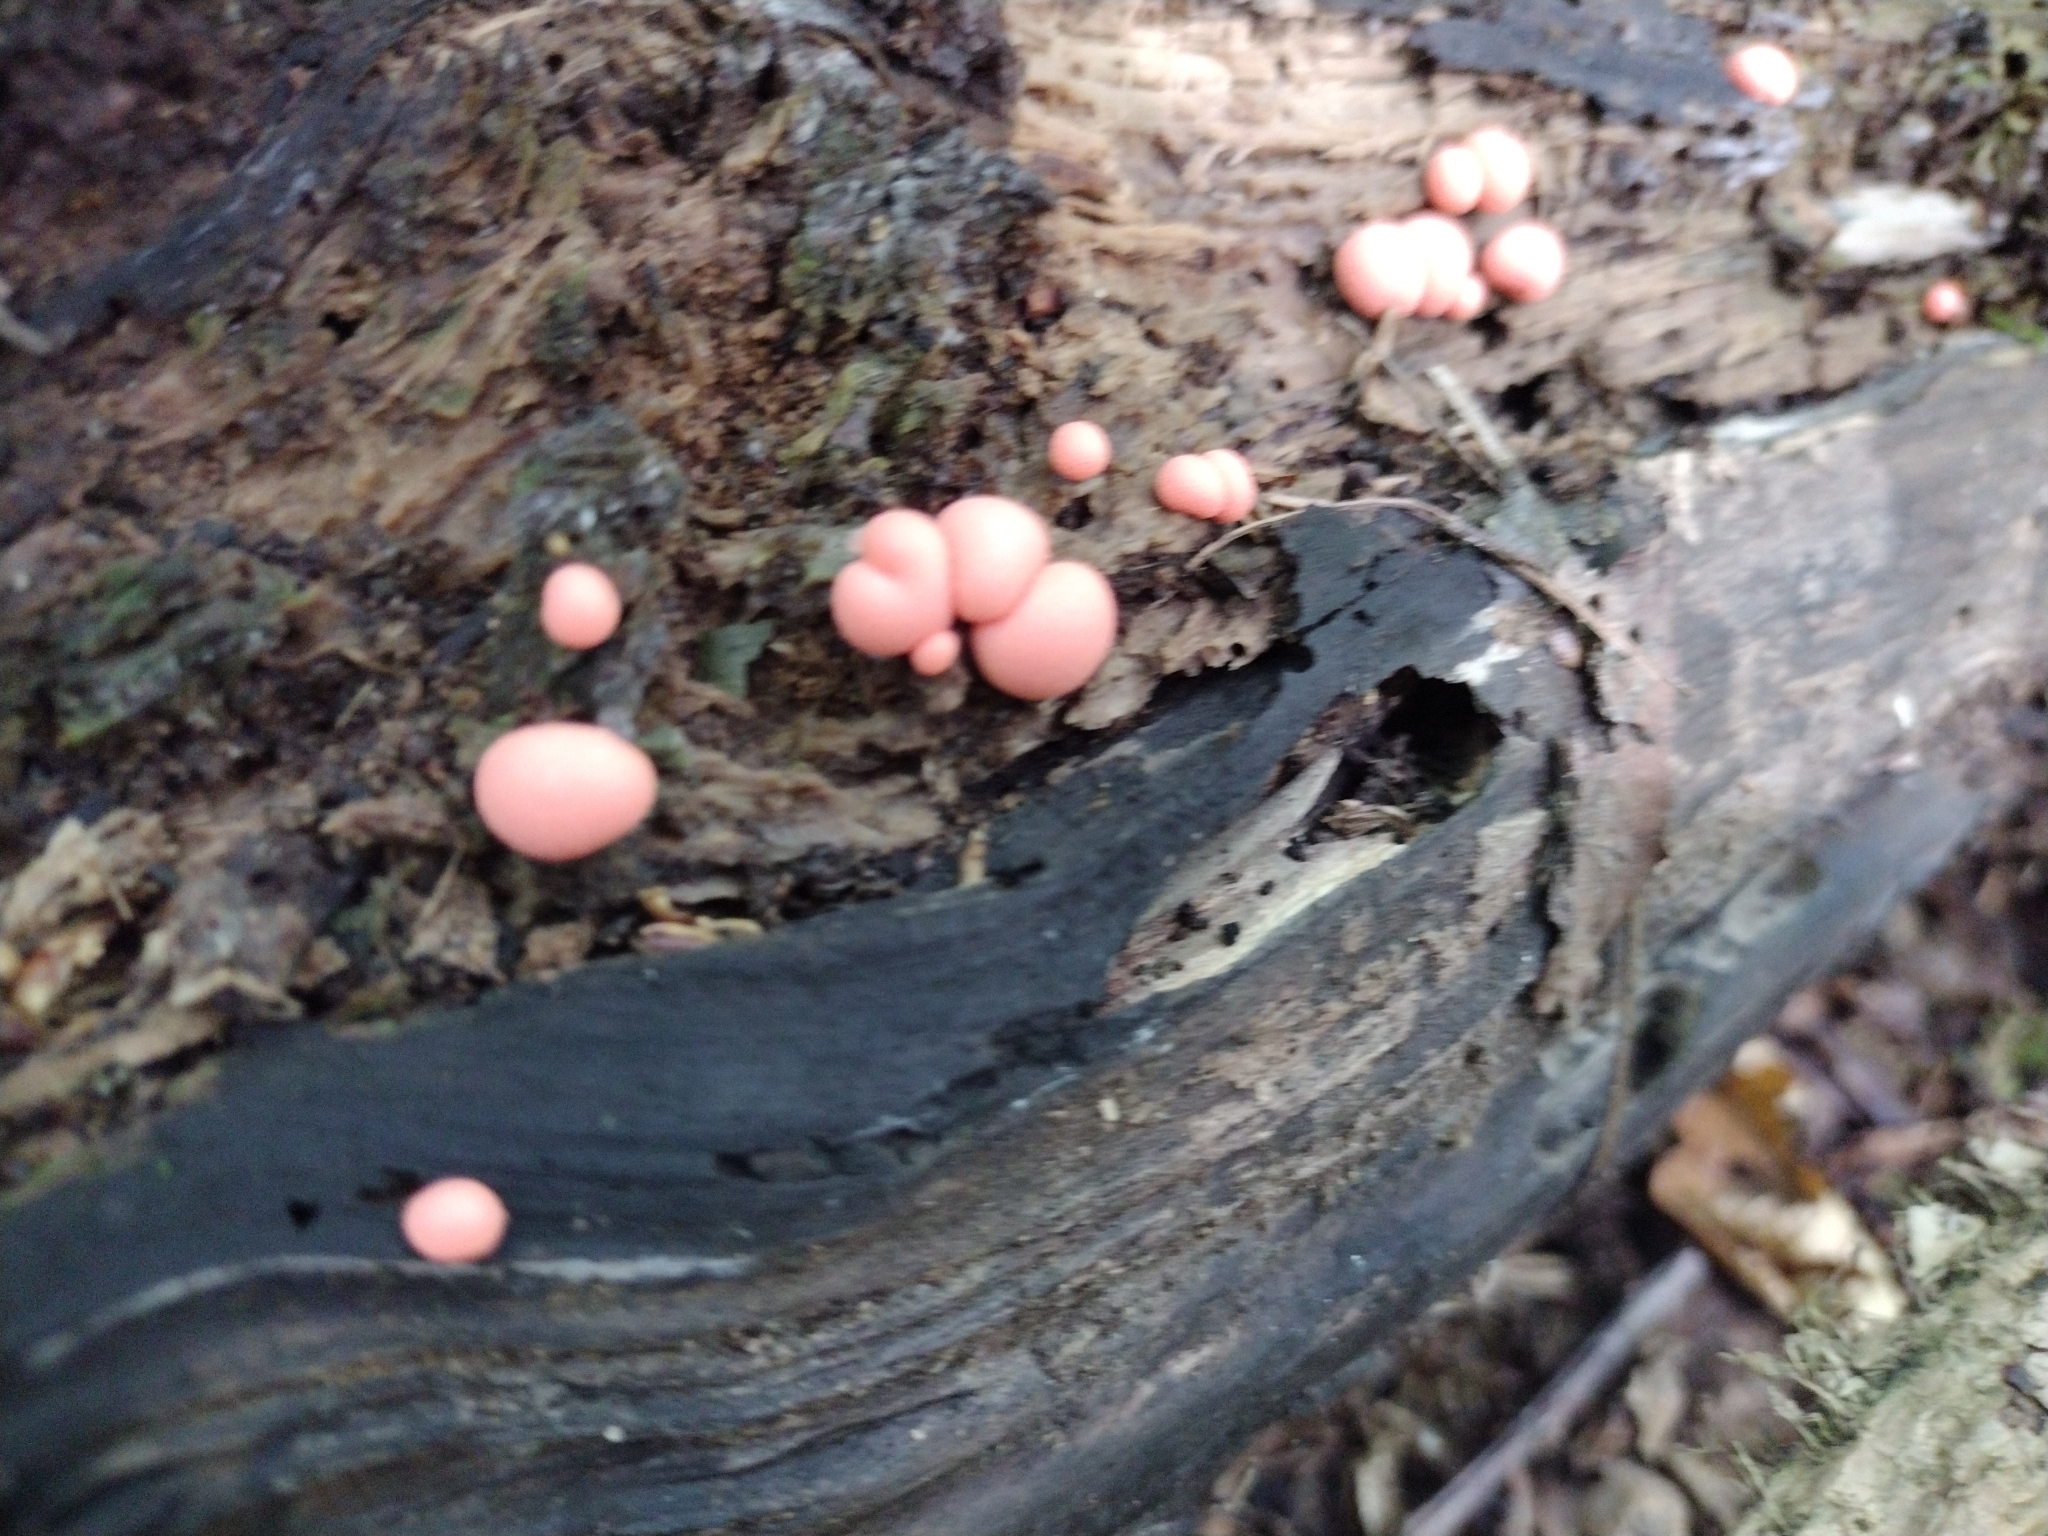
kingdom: Protozoa
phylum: Mycetozoa
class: Myxomycetes
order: Cribrariales
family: Tubiferaceae
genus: Lycogala
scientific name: Lycogala epidendrum
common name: Wolf's milk
